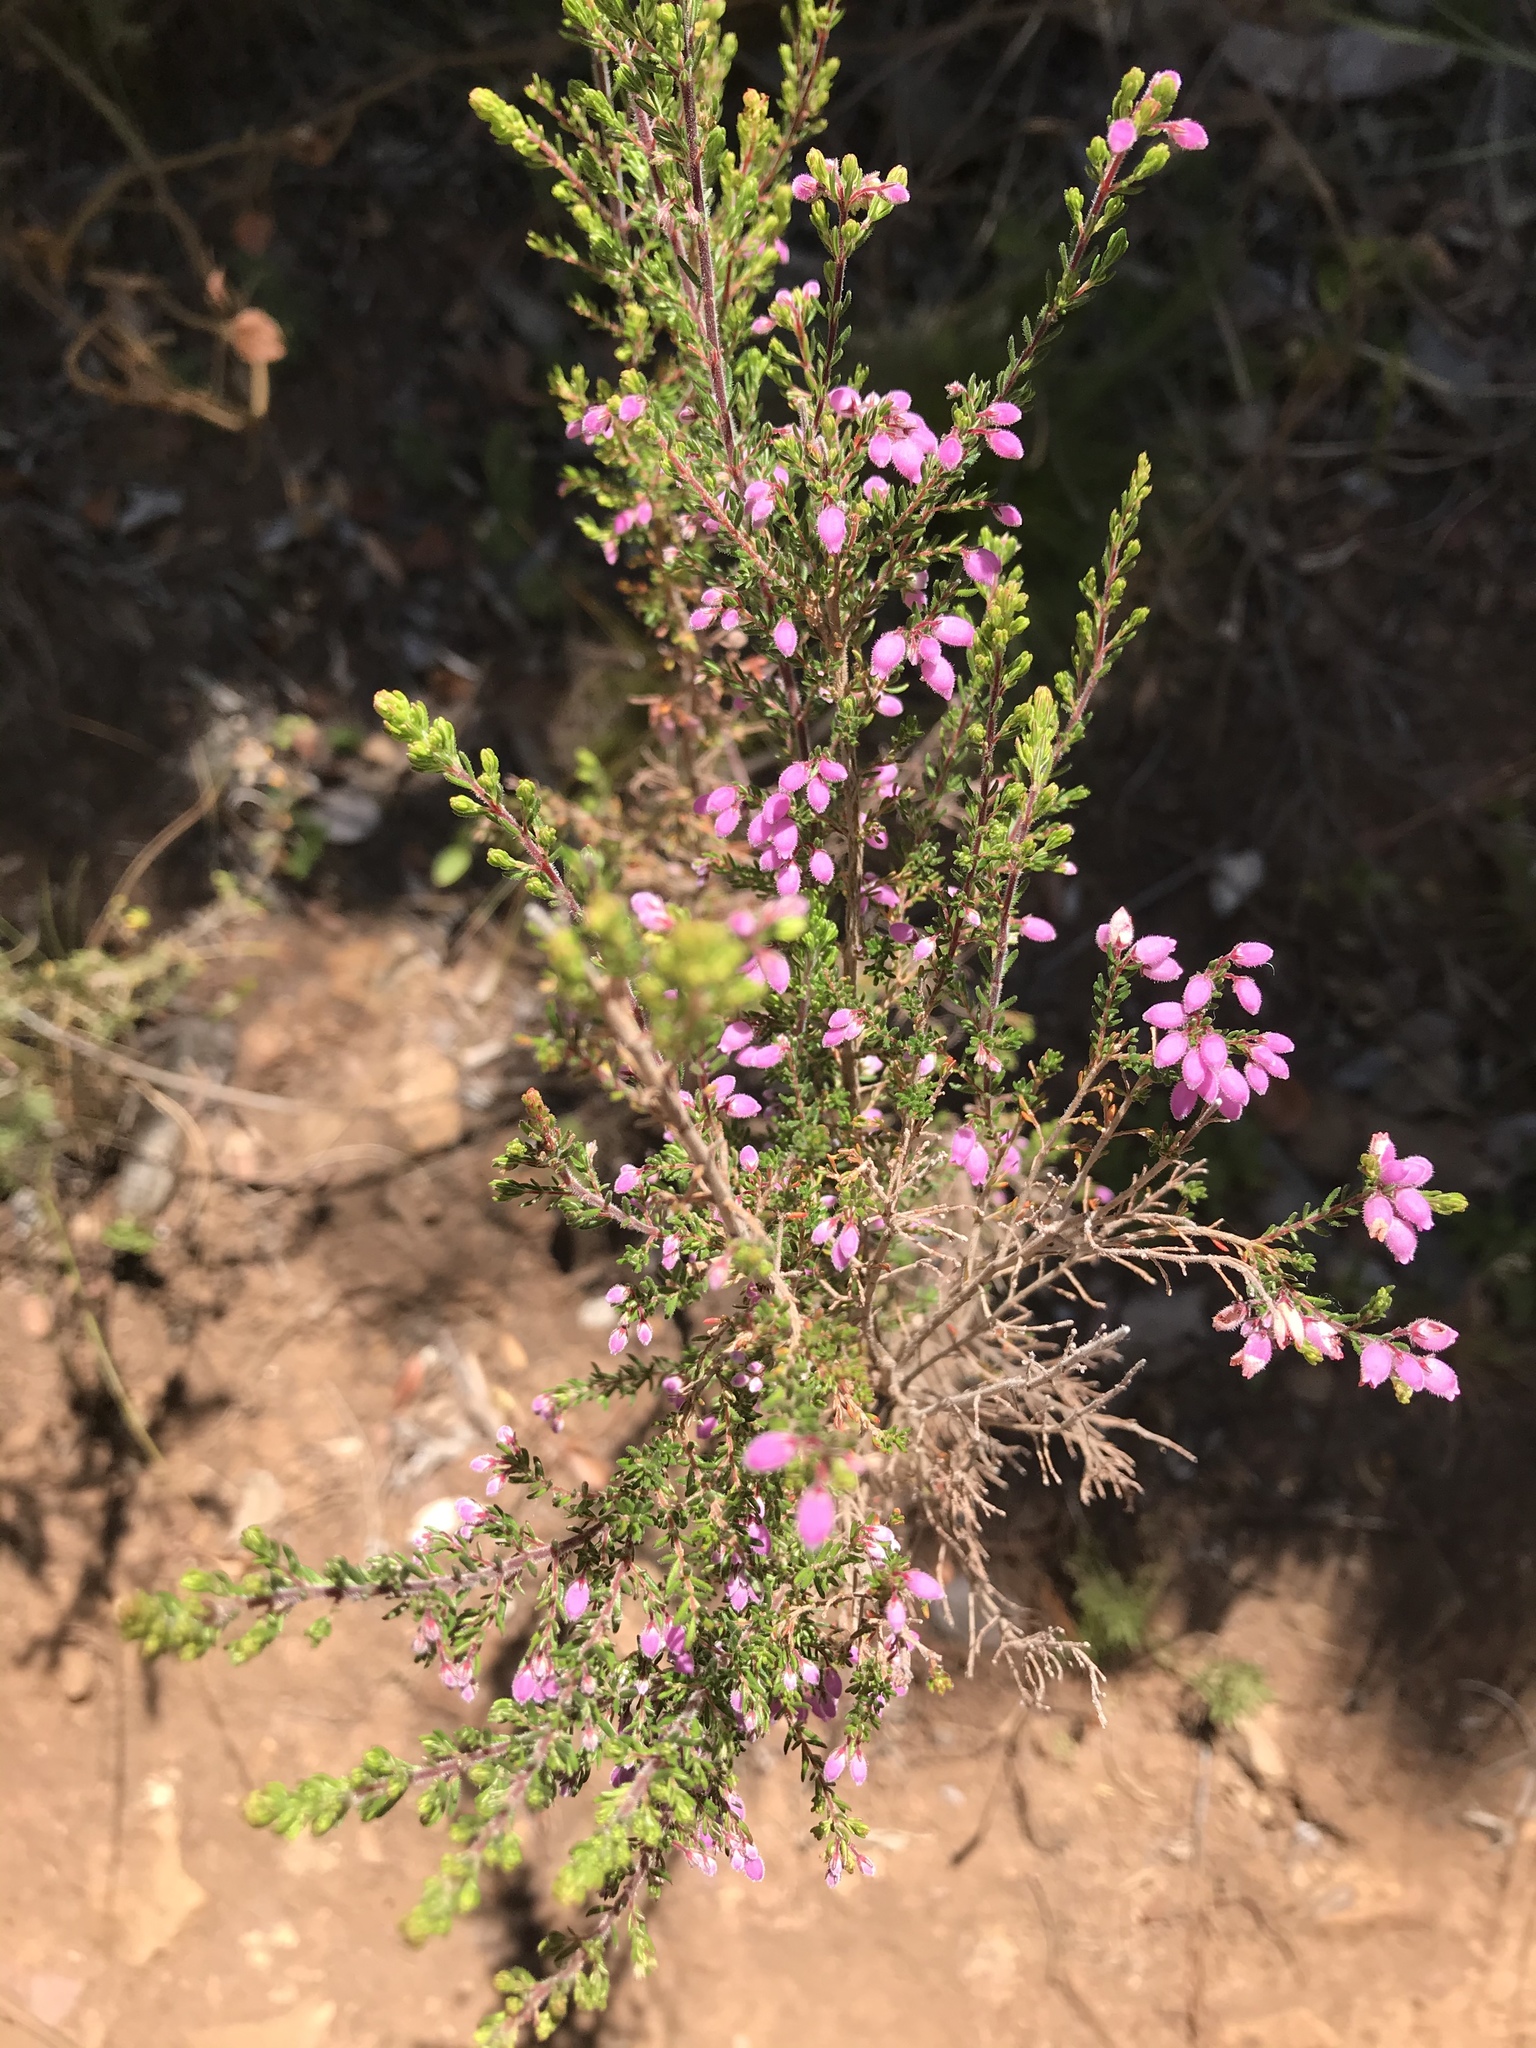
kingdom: Plantae
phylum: Tracheophyta
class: Magnoliopsida
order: Ericales
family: Ericaceae
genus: Erica
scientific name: Erica hirtiflora
